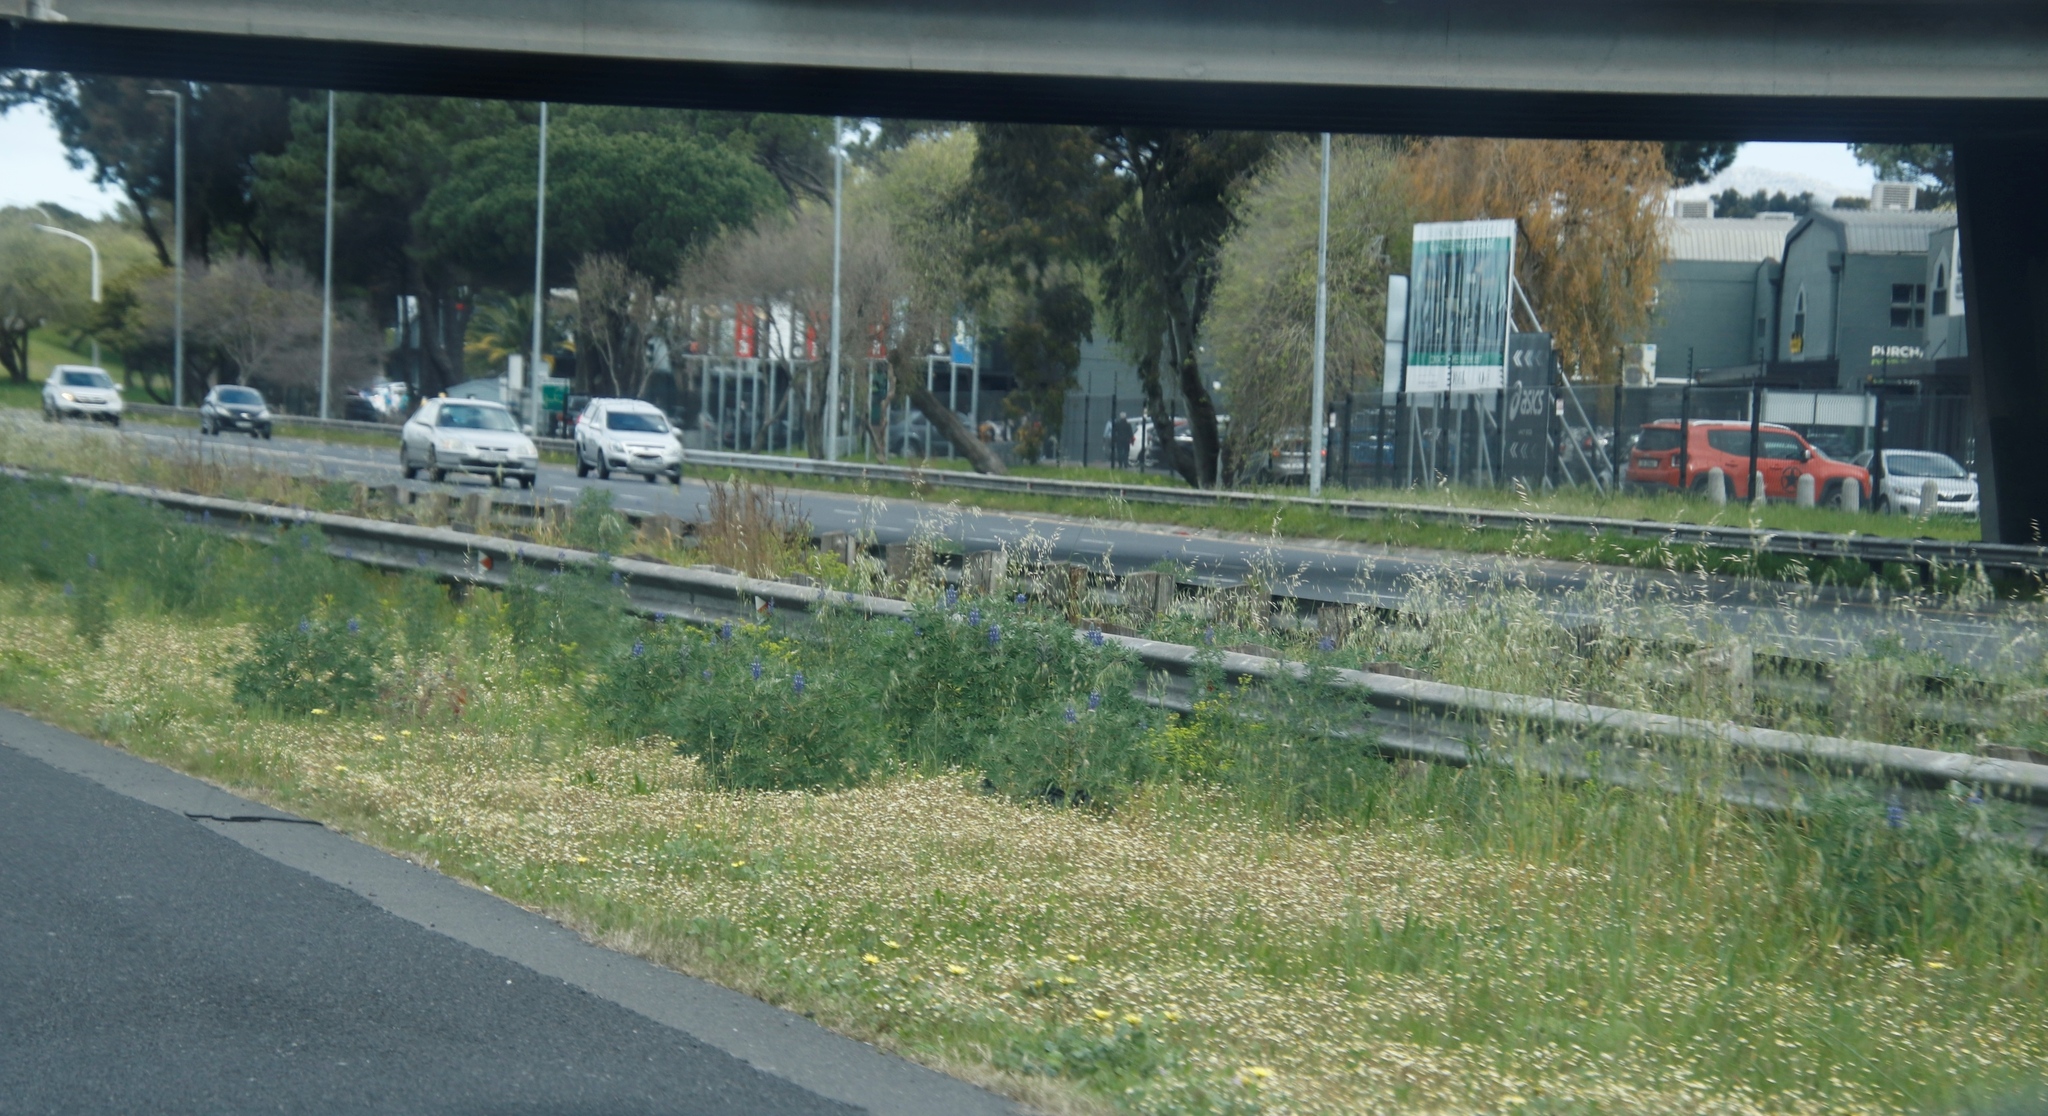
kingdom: Plantae
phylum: Tracheophyta
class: Magnoliopsida
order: Asterales
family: Asteraceae
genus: Cotula
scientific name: Cotula turbinata
